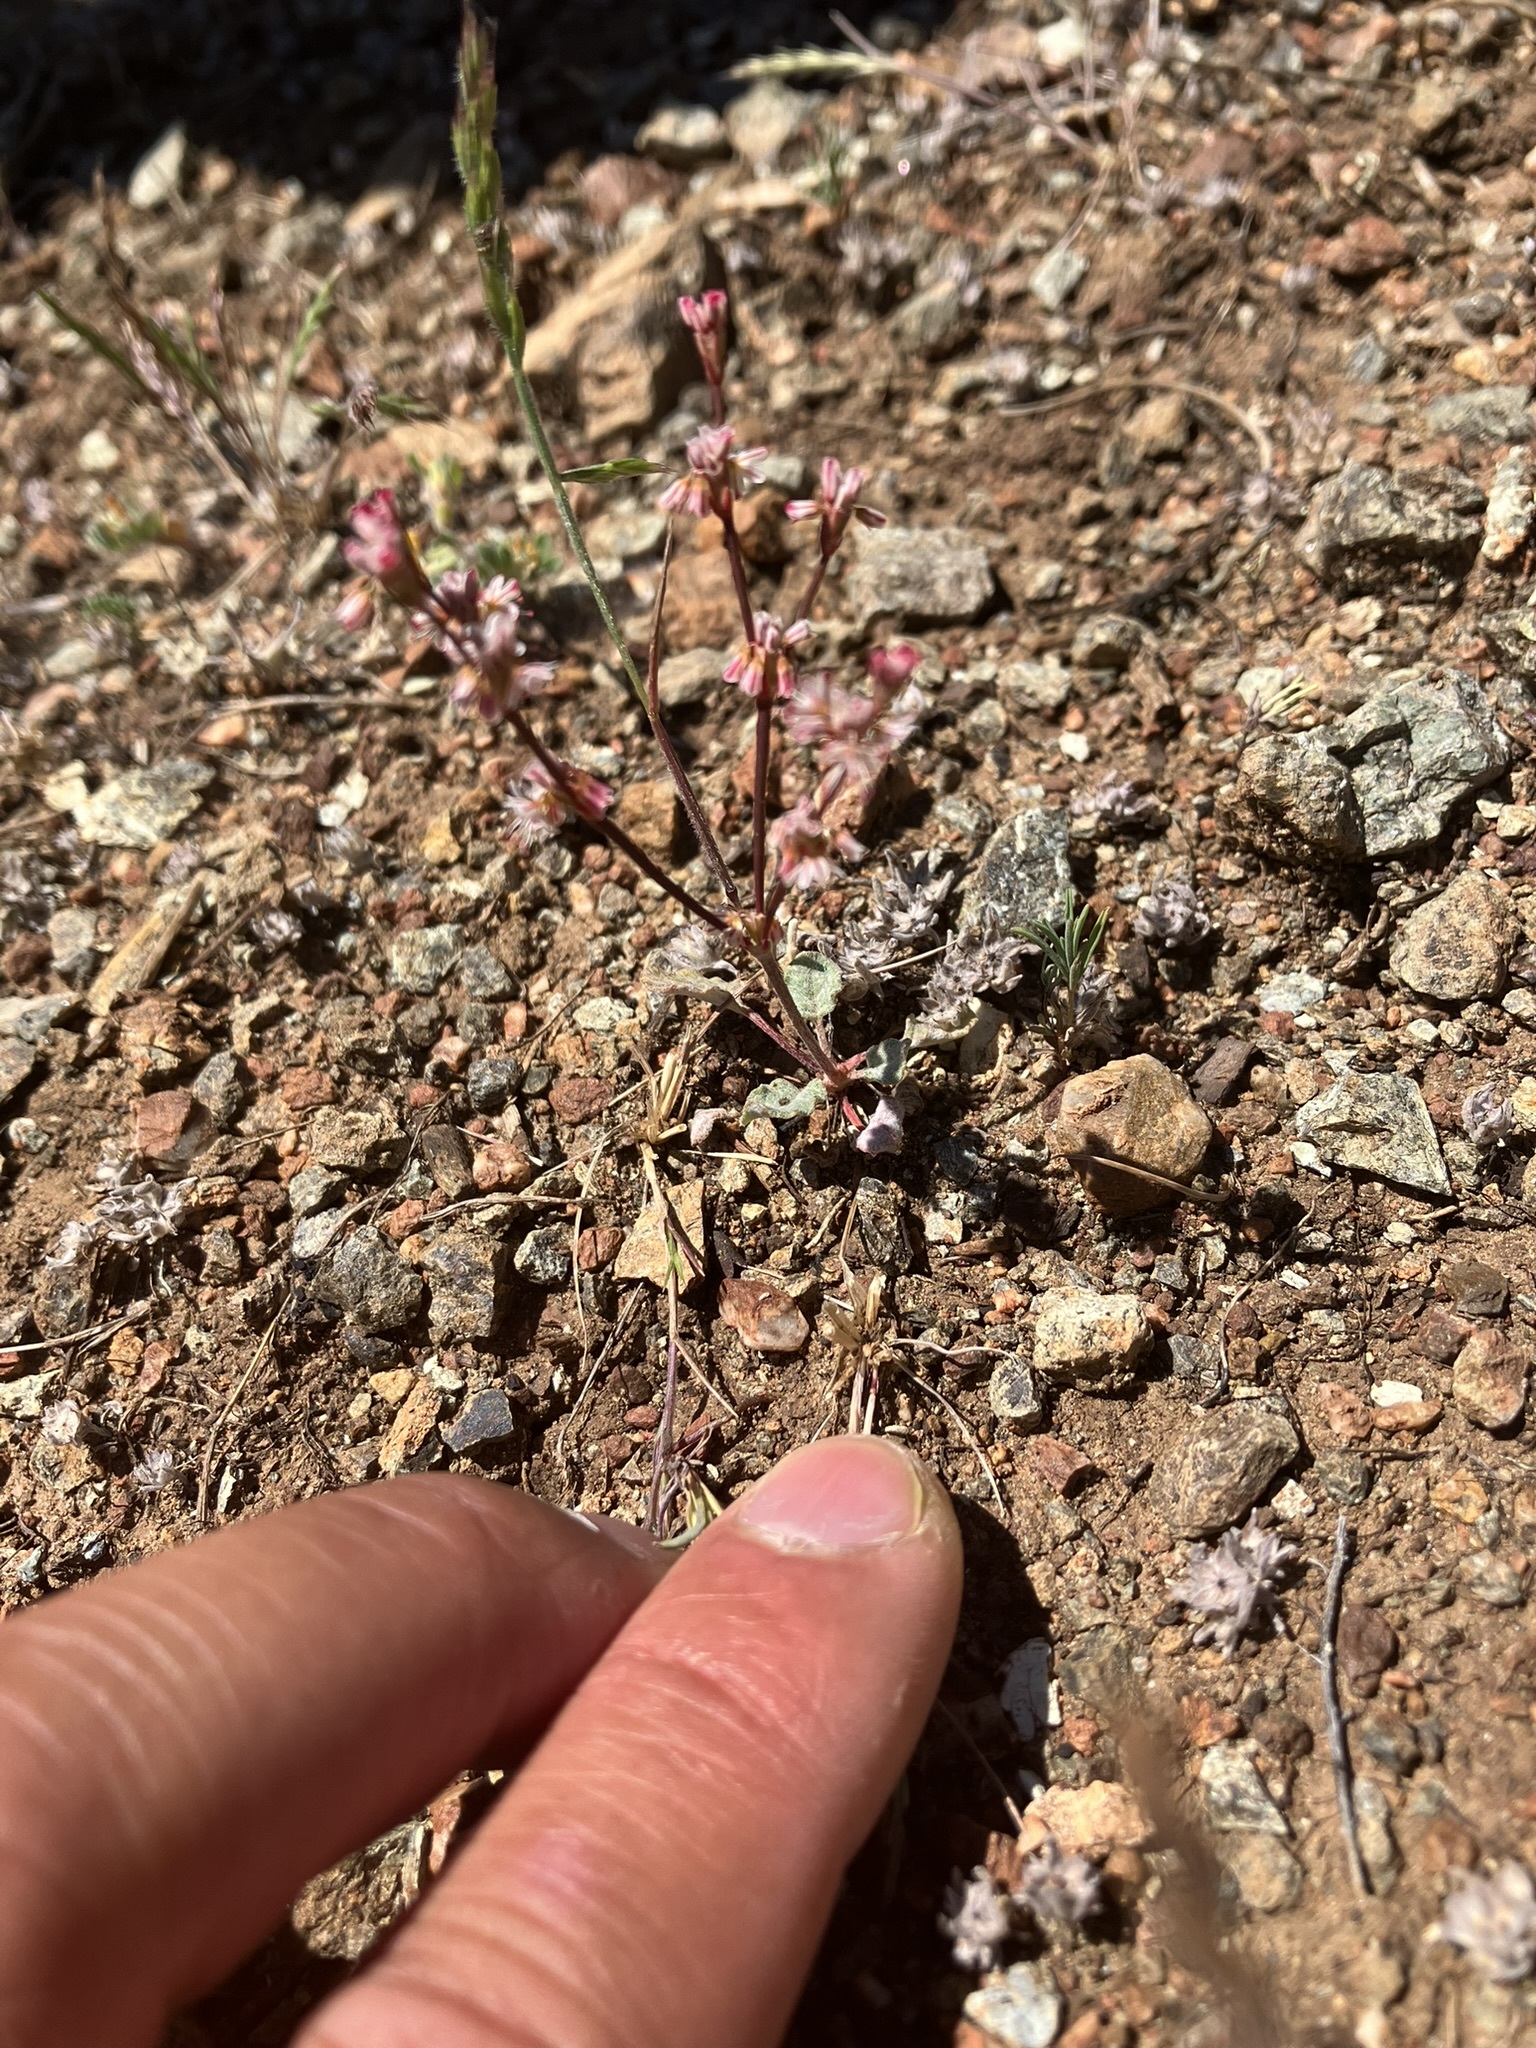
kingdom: Plantae
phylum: Tracheophyta
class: Magnoliopsida
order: Caryophyllales
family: Polygonaceae
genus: Eriogonum
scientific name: Eriogonum luteolum
